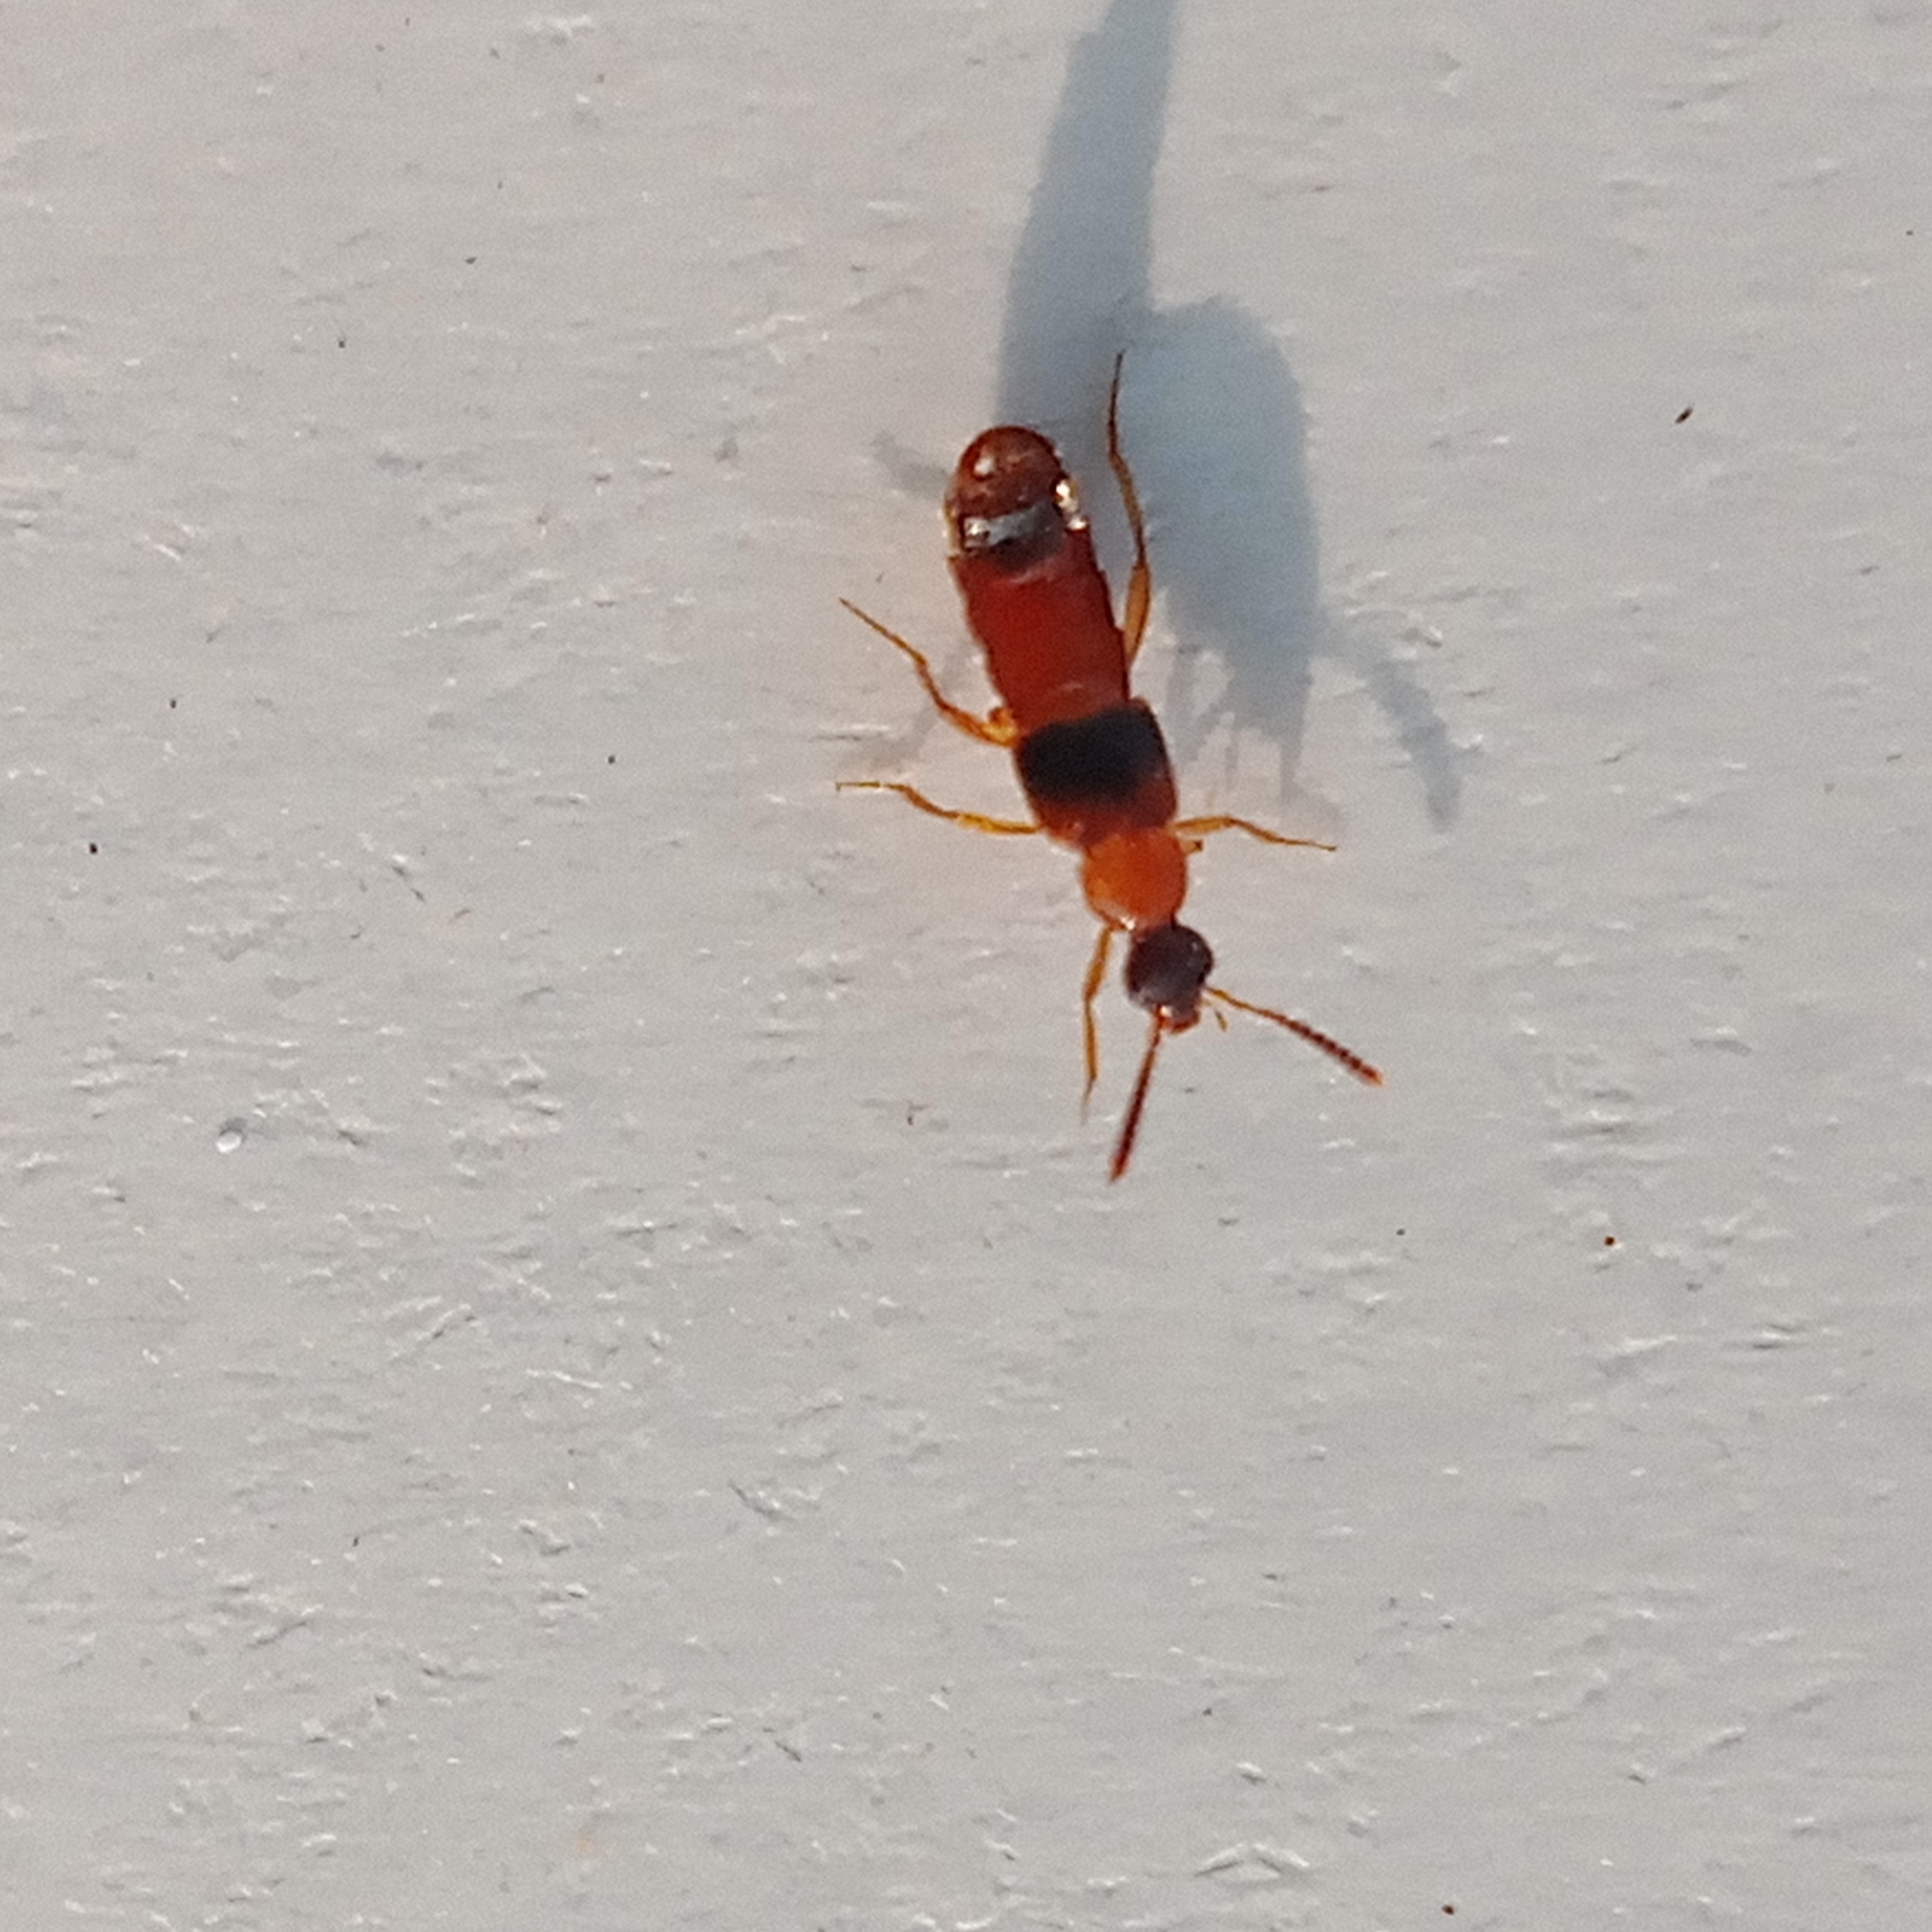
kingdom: Animalia
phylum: Arthropoda
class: Insecta
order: Coleoptera
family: Staphylinidae
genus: Bolitochara
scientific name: Bolitochara pulchra
